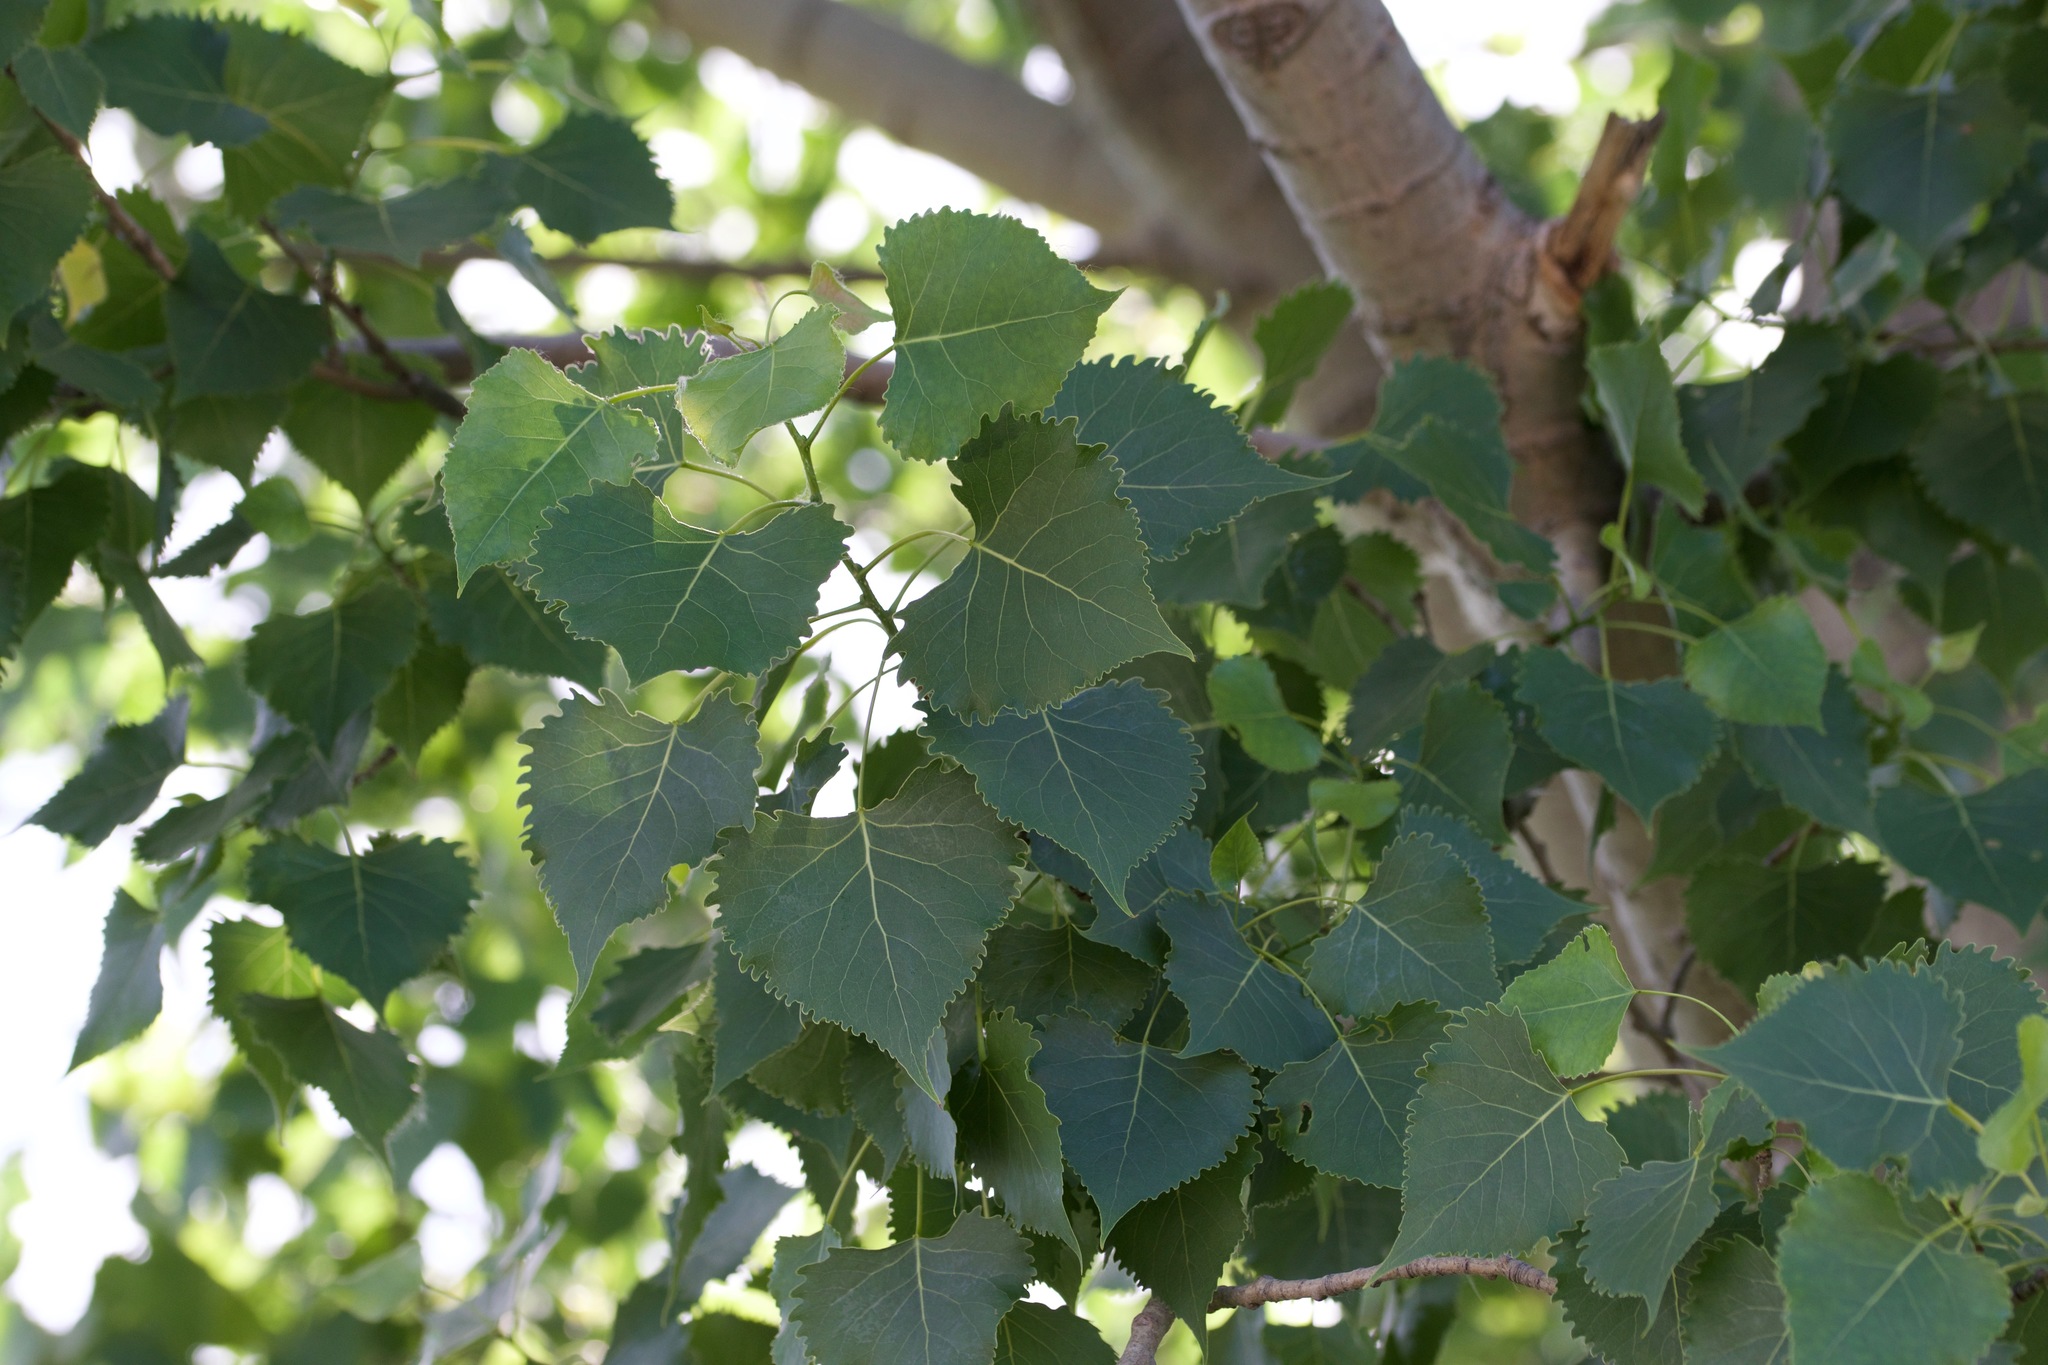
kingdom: Plantae
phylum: Tracheophyta
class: Magnoliopsida
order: Malpighiales
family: Salicaceae
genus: Populus
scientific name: Populus deltoides
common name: Eastern cottonwood
